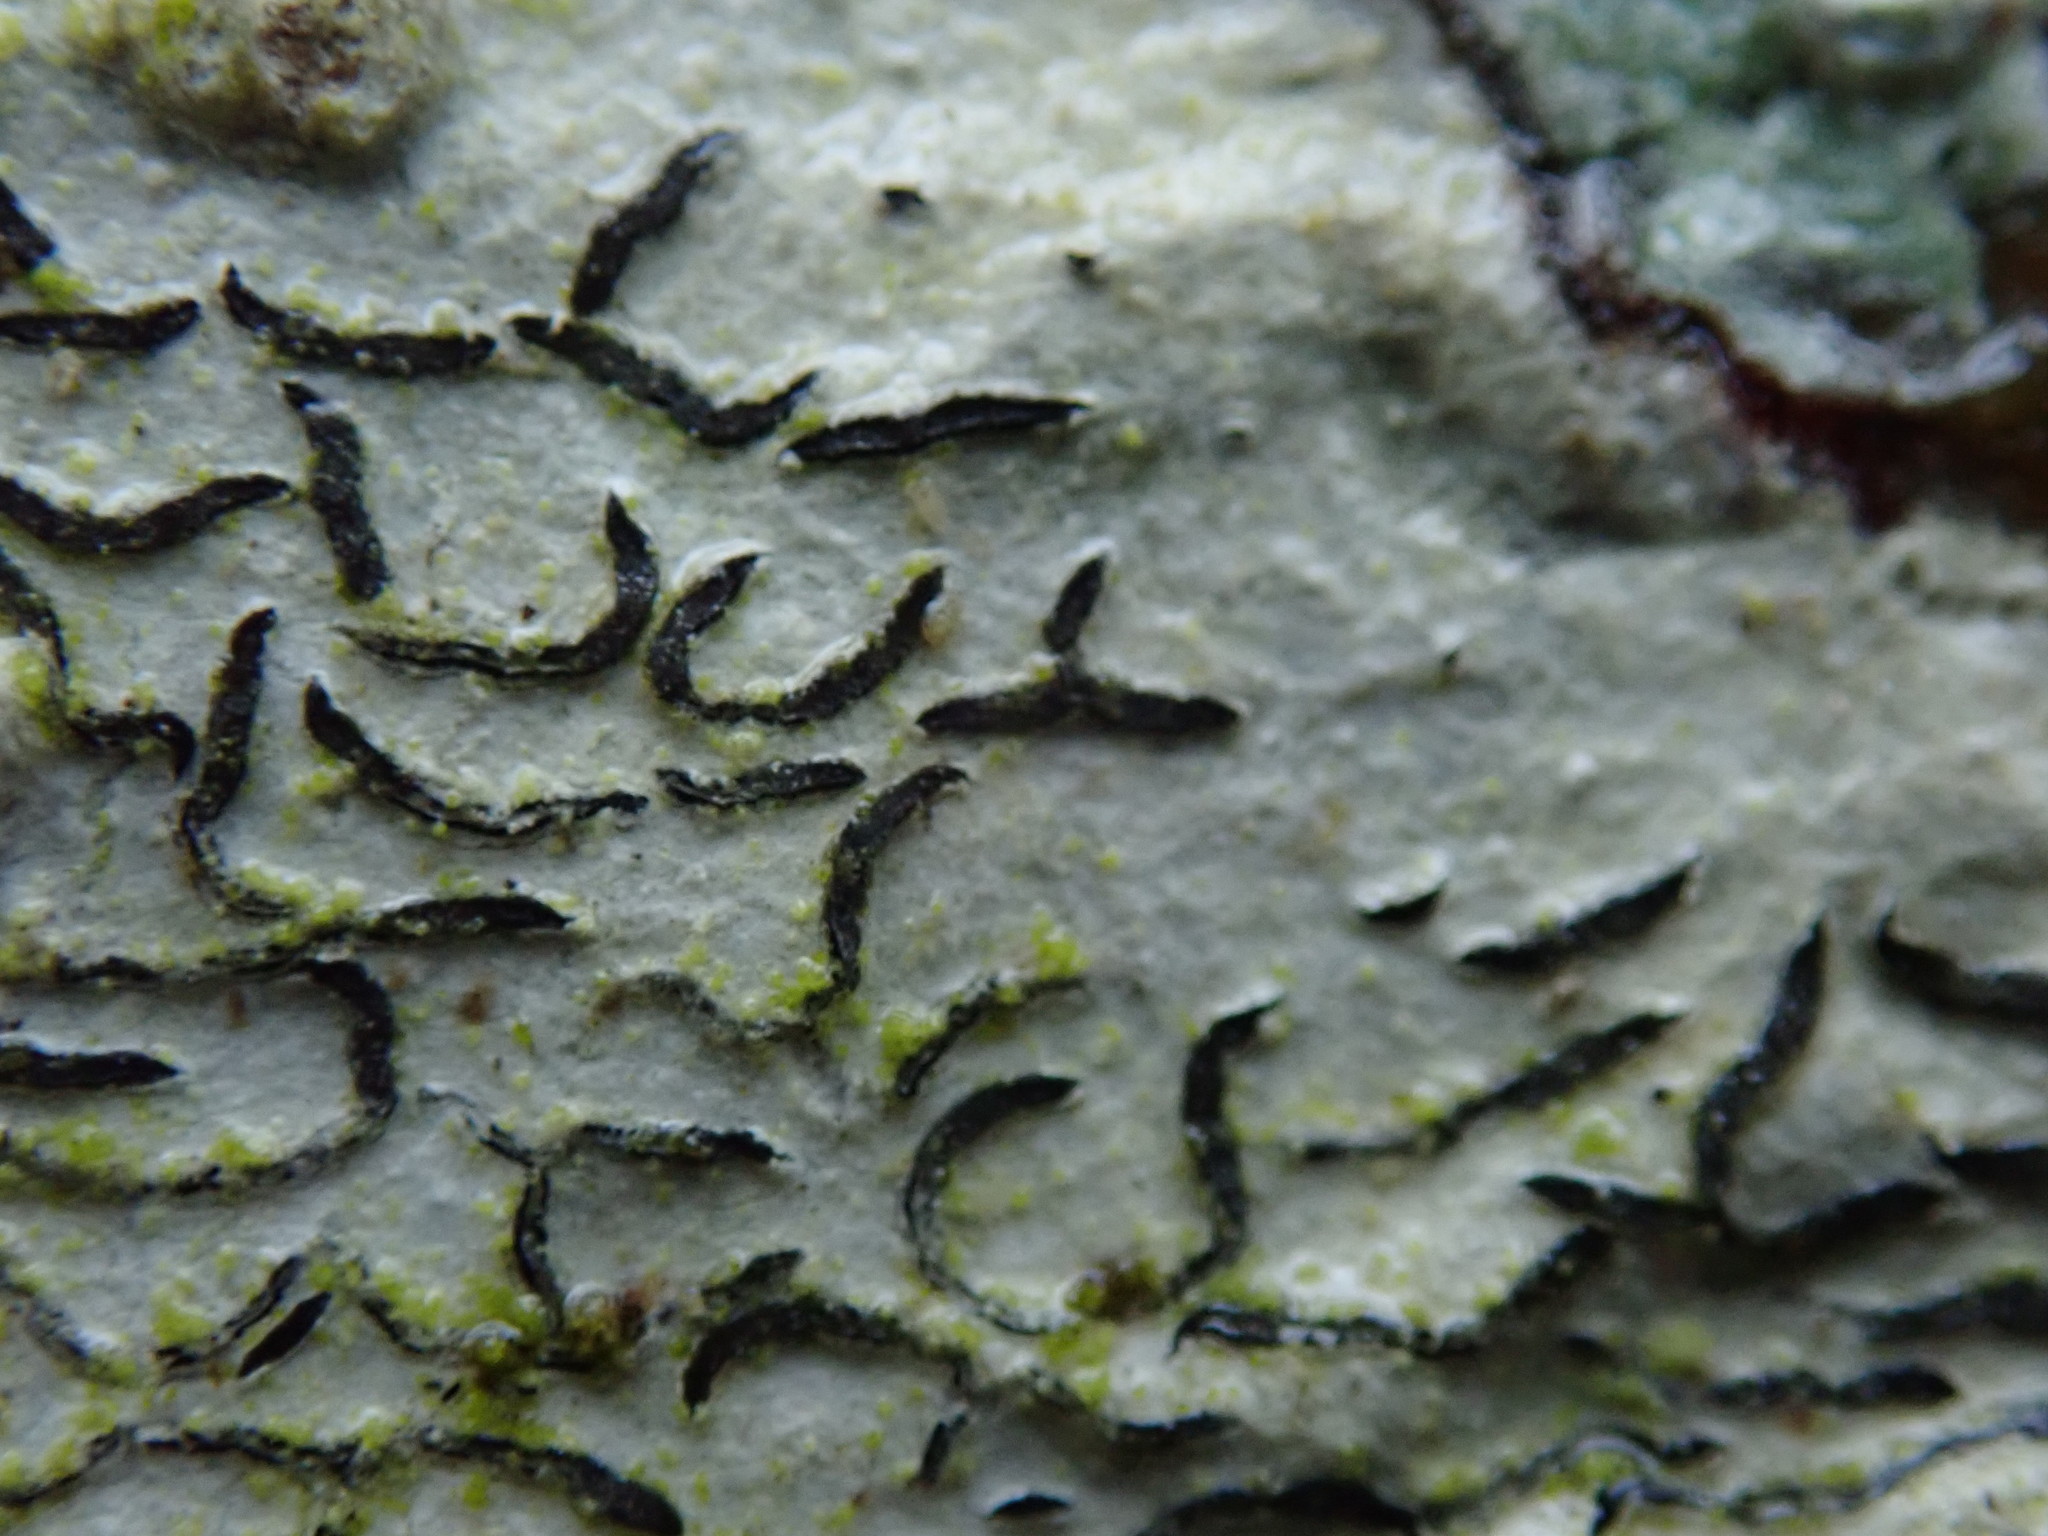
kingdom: Fungi
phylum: Ascomycota
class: Lecanoromycetes
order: Ostropales
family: Graphidaceae
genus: Graphis
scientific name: Graphis scripta
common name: Script lichen
